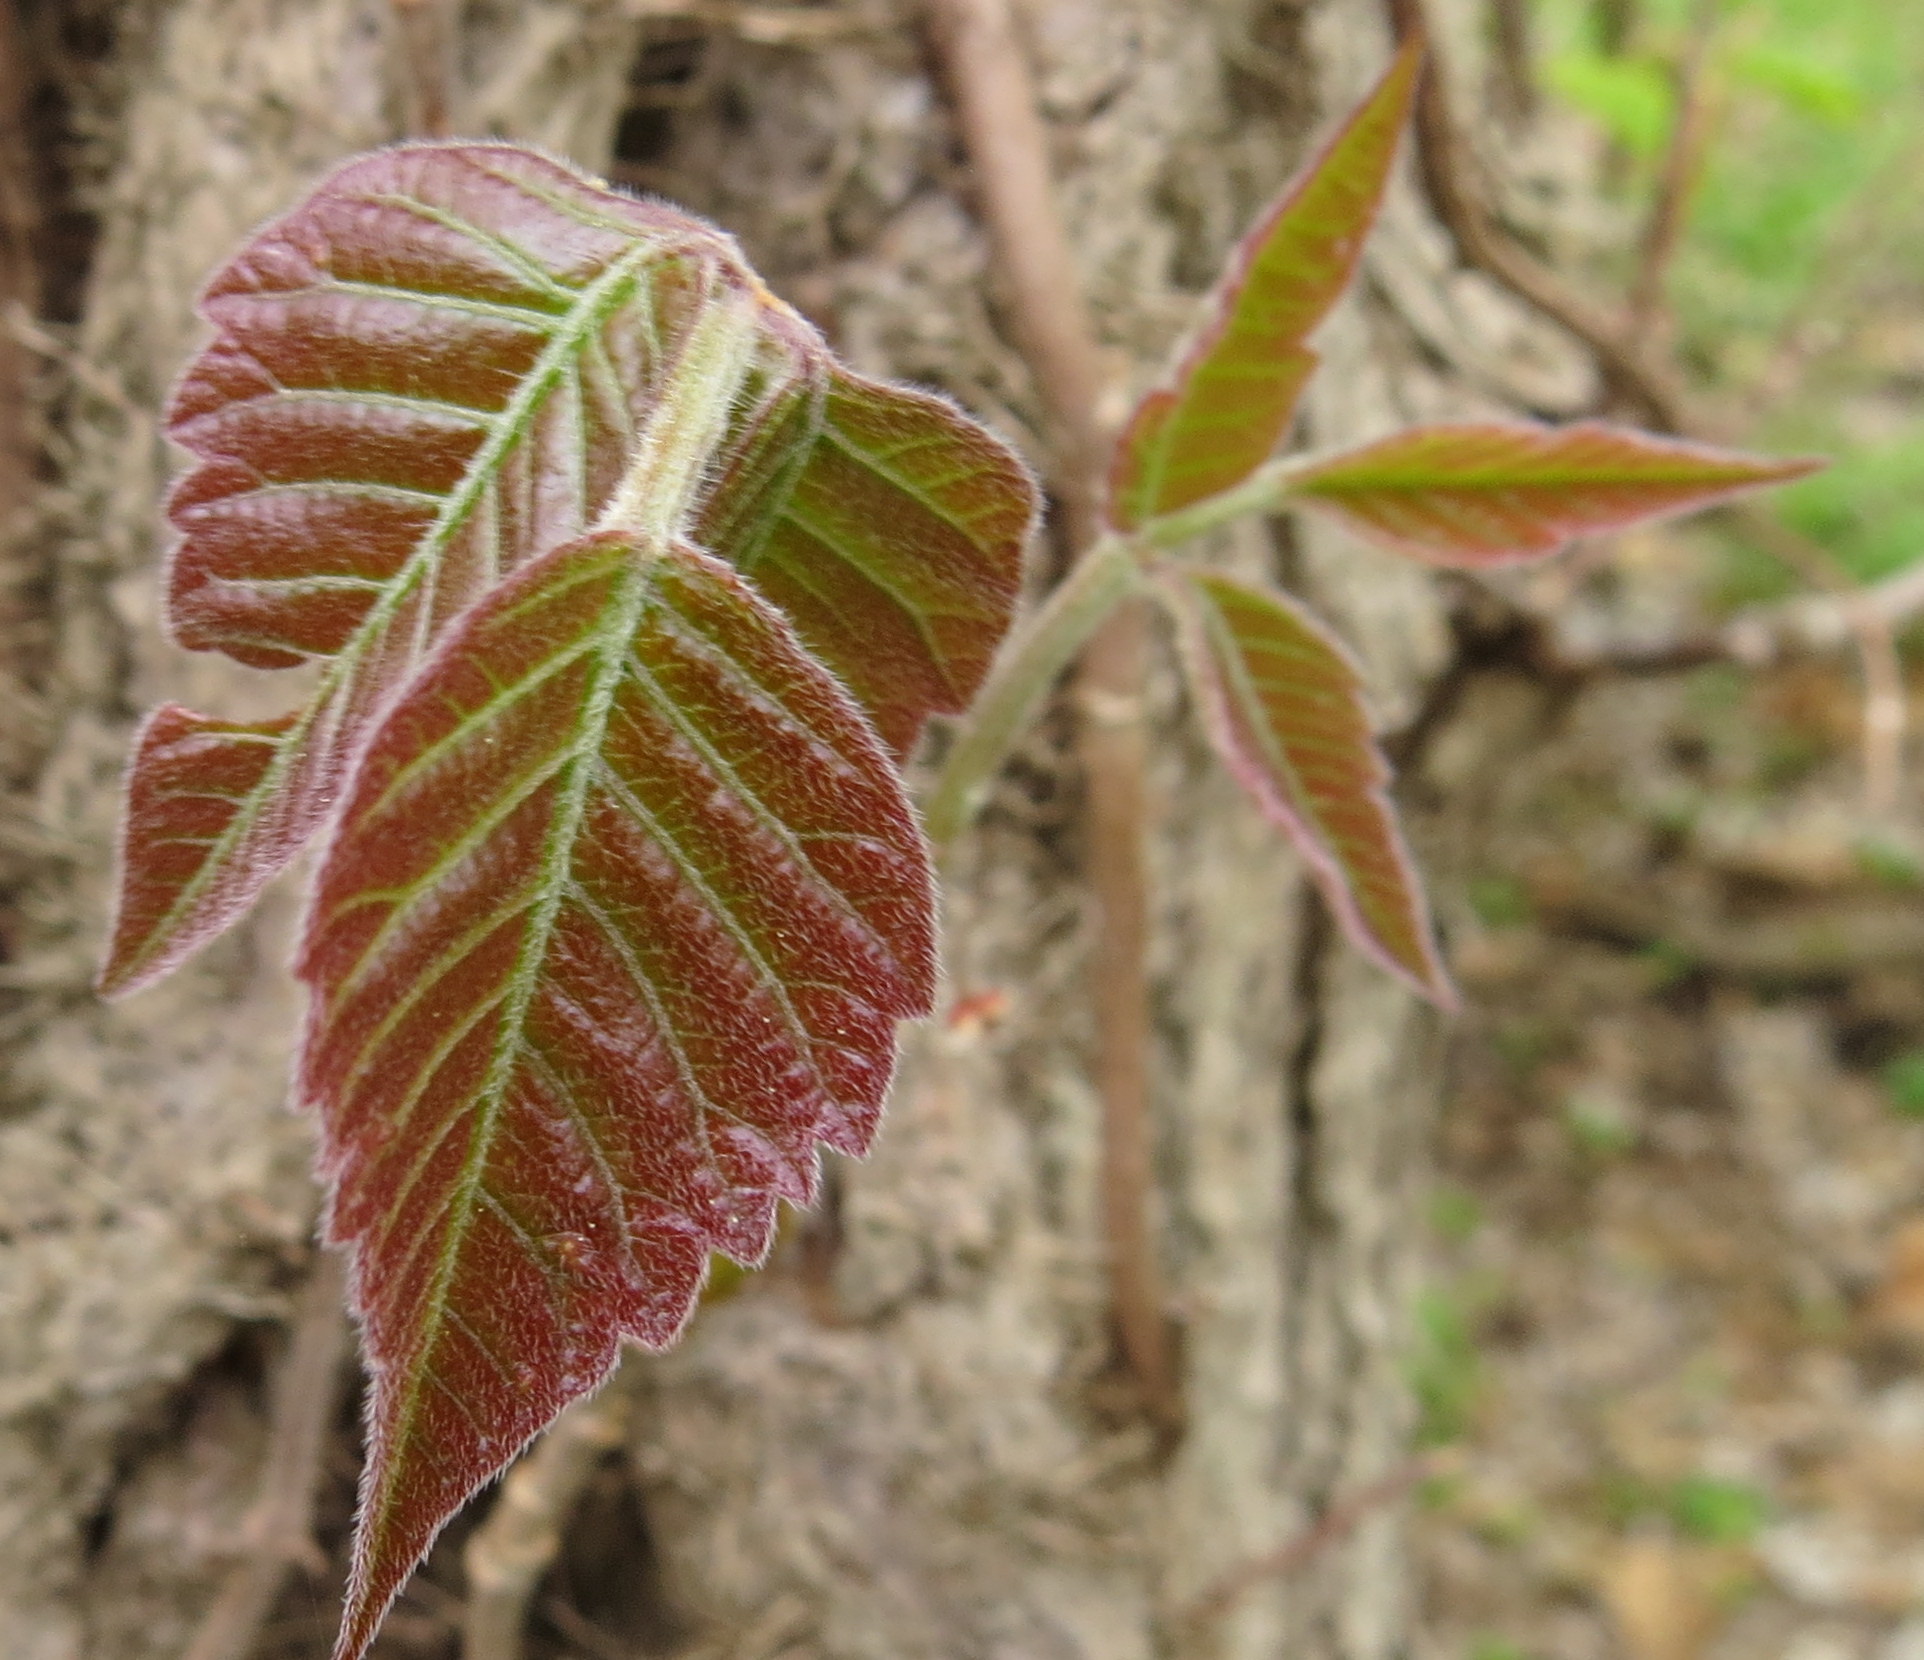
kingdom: Plantae
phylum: Tracheophyta
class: Magnoliopsida
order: Sapindales
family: Anacardiaceae
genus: Toxicodendron
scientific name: Toxicodendron radicans
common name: Poison ivy
